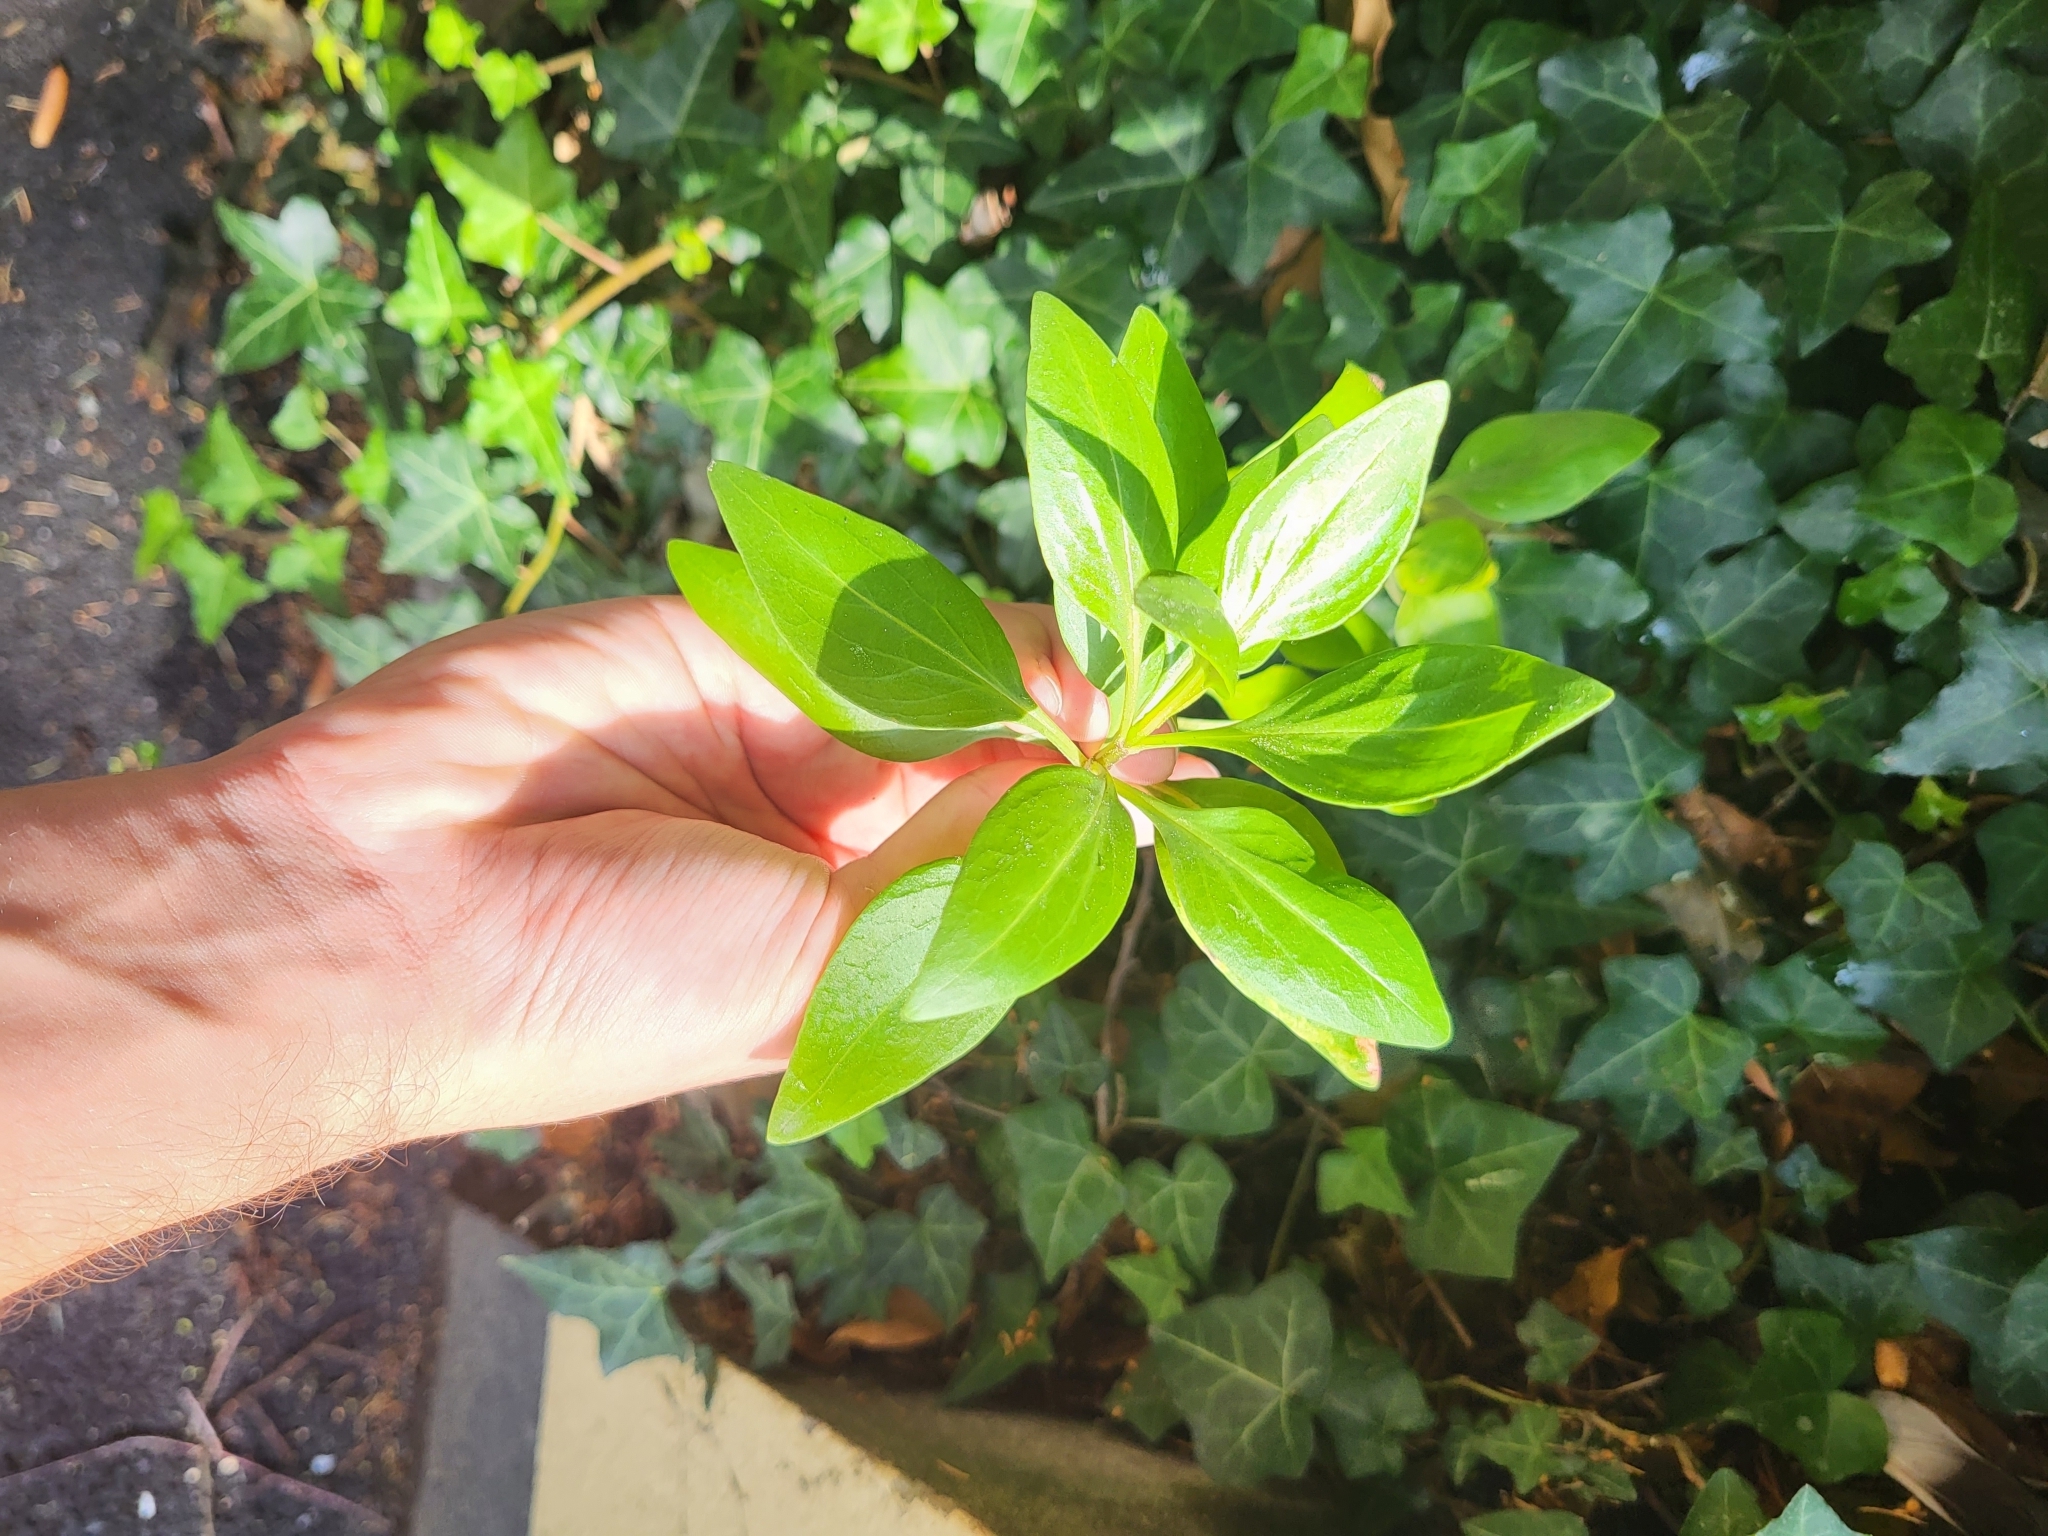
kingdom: Plantae
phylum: Tracheophyta
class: Magnoliopsida
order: Dipsacales
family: Caprifoliaceae
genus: Centranthus
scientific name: Centranthus ruber
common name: Red valerian
